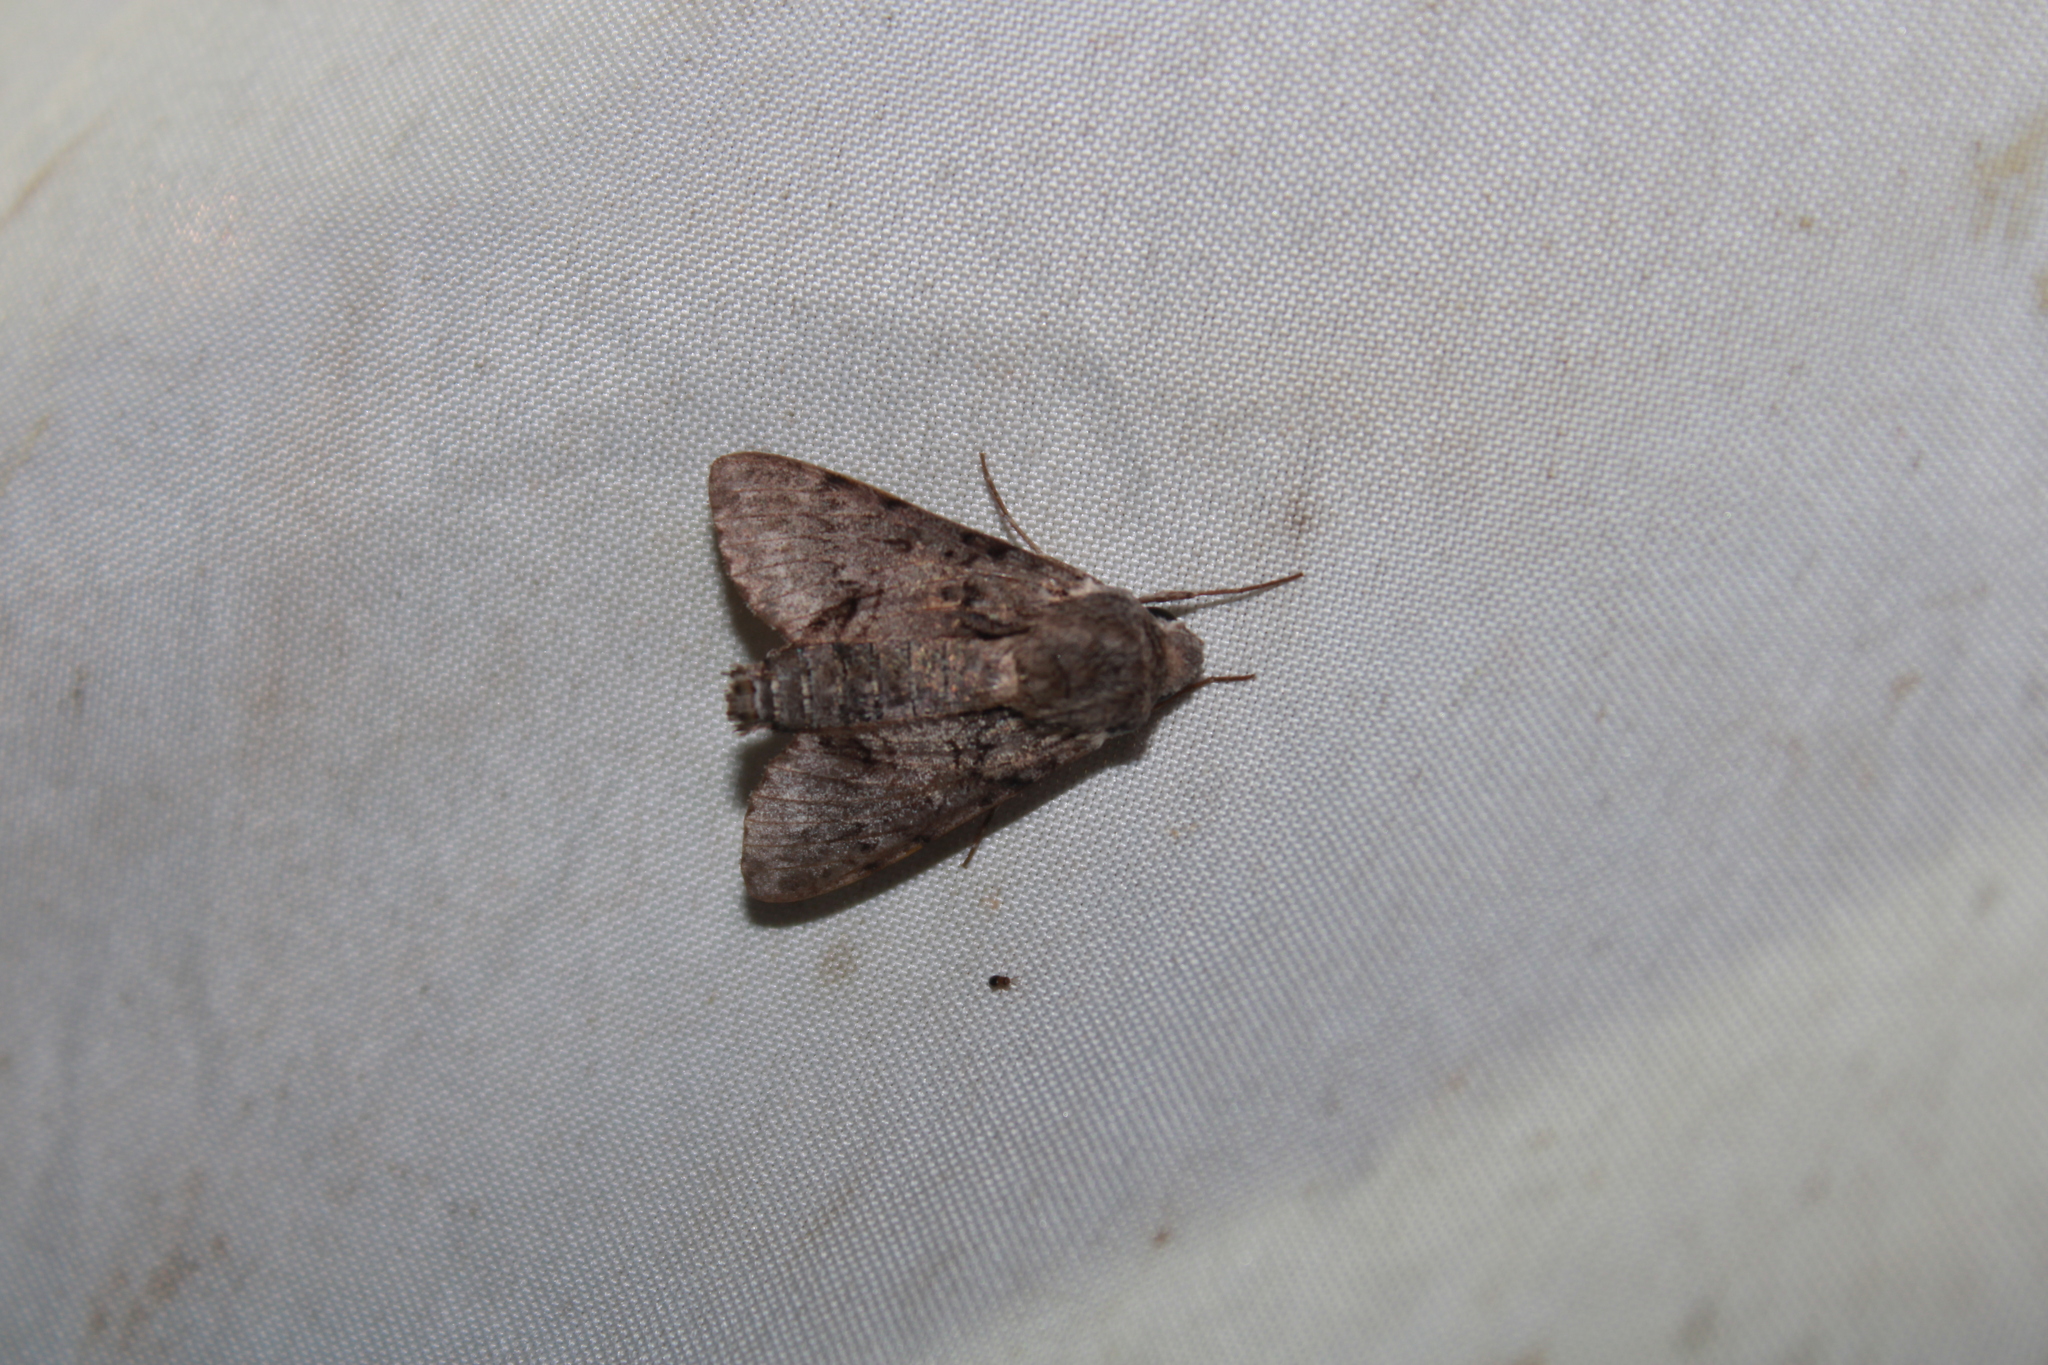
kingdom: Animalia
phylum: Arthropoda
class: Insecta
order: Lepidoptera
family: Sphingidae
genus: Cautethia
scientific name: Cautethia grotei
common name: Grote's sphinx
